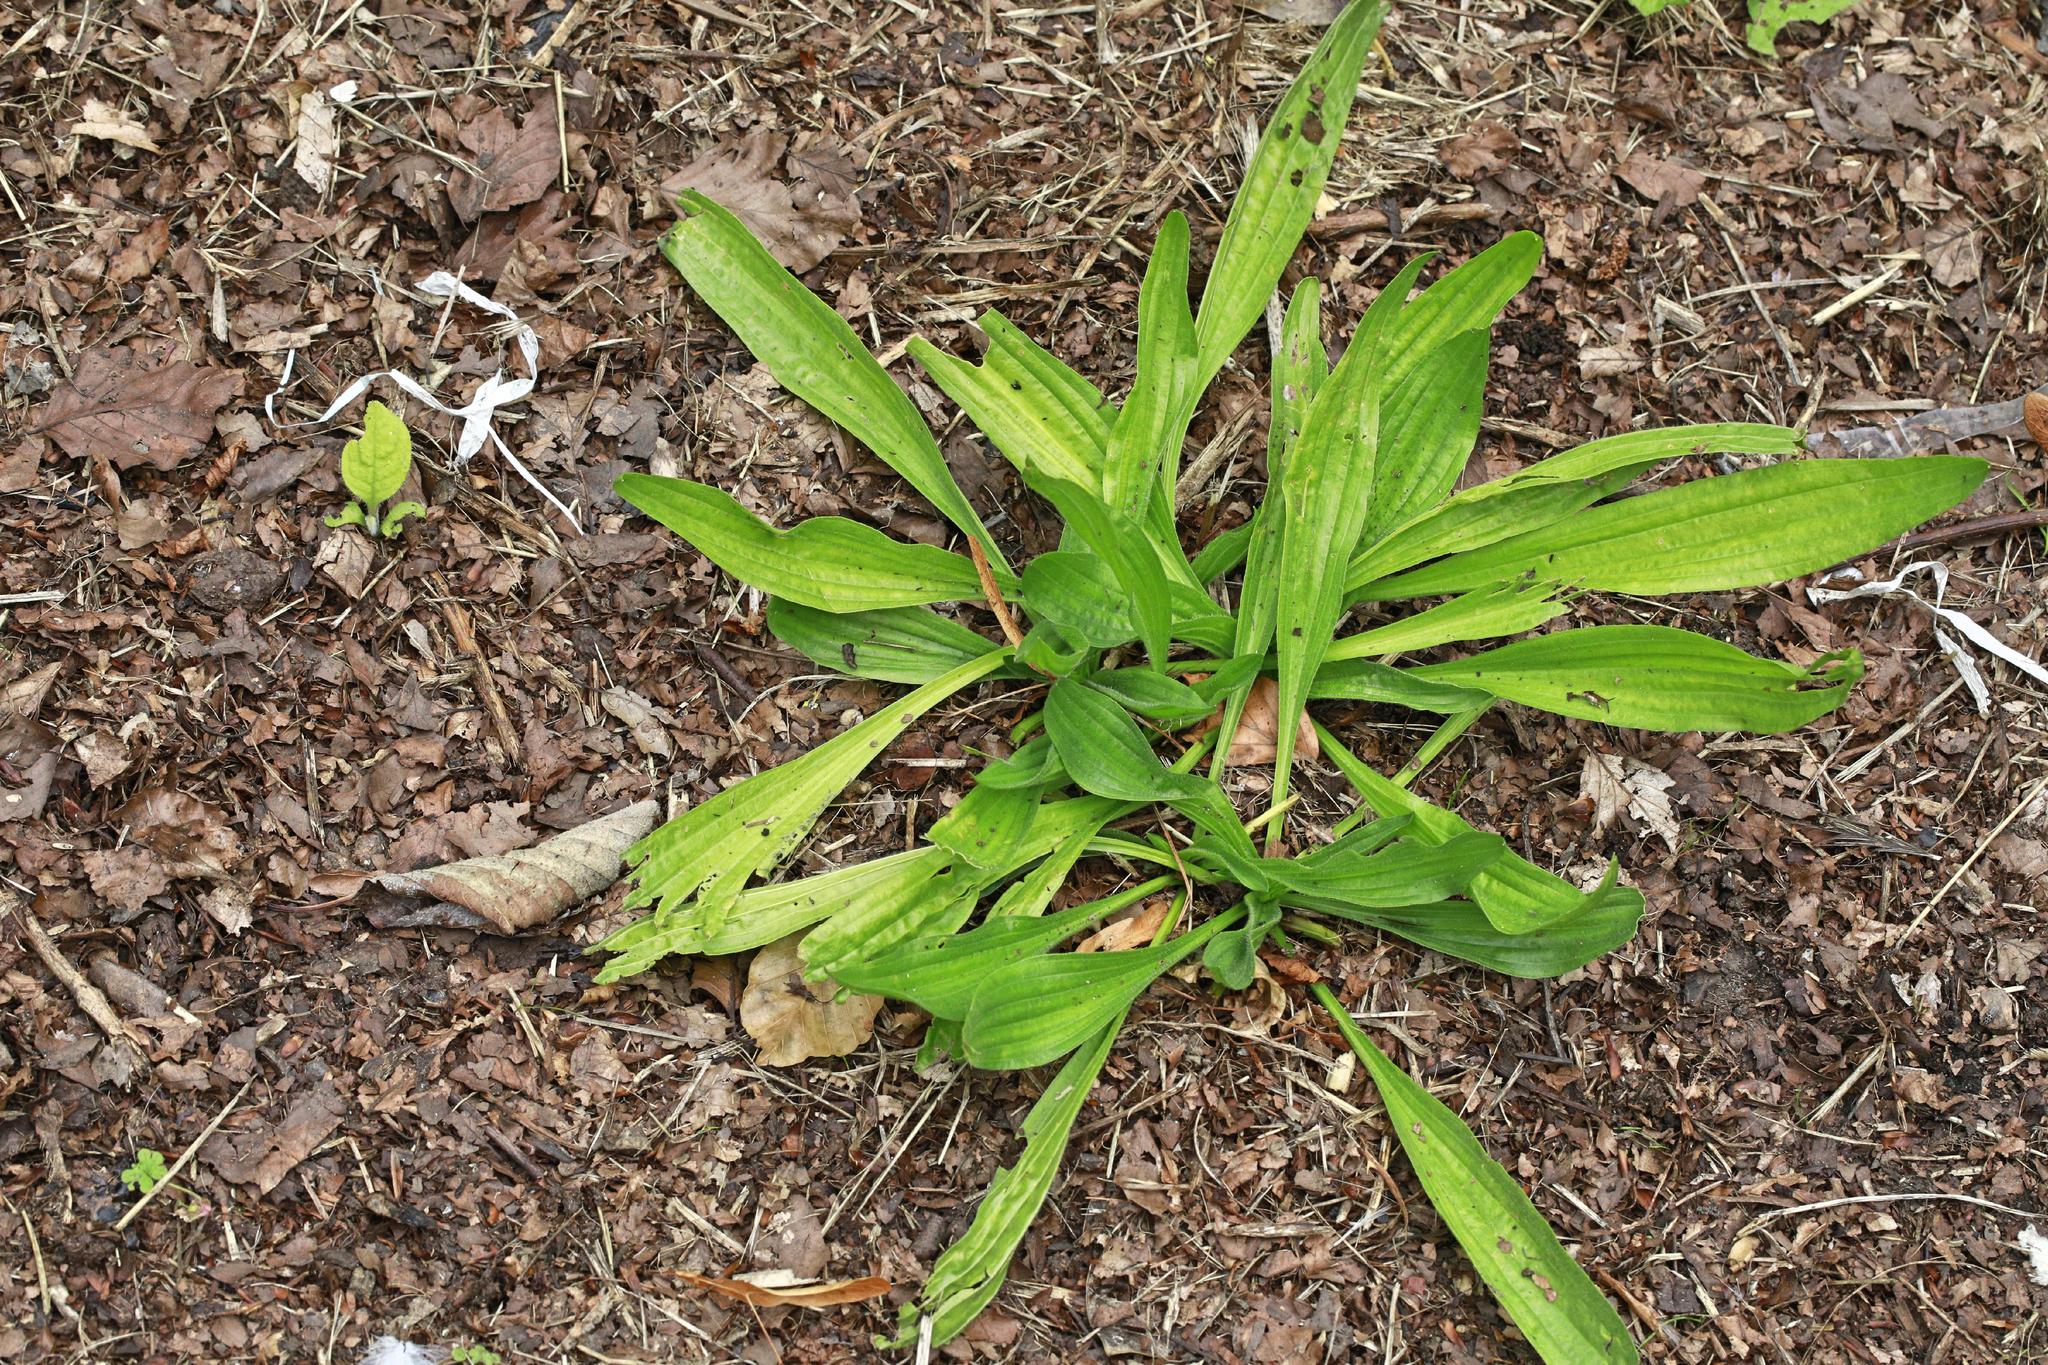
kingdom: Plantae
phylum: Tracheophyta
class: Magnoliopsida
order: Lamiales
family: Plantaginaceae
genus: Plantago
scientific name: Plantago lanceolata
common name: Ribwort plantain
